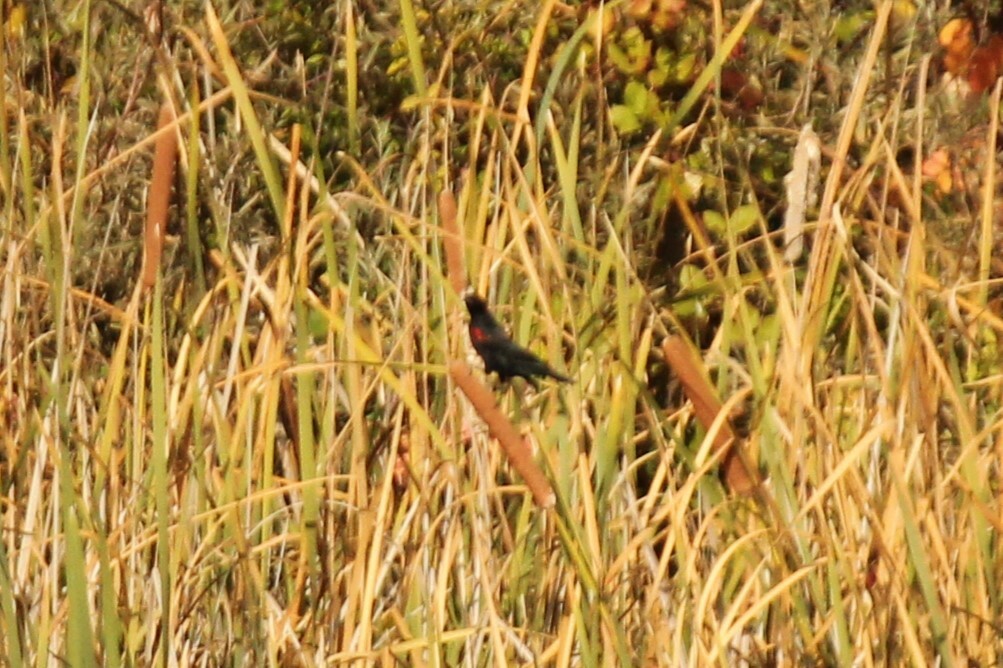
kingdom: Animalia
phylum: Chordata
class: Aves
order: Passeriformes
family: Icteridae
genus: Agelaius
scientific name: Agelaius phoeniceus
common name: Red-winged blackbird
